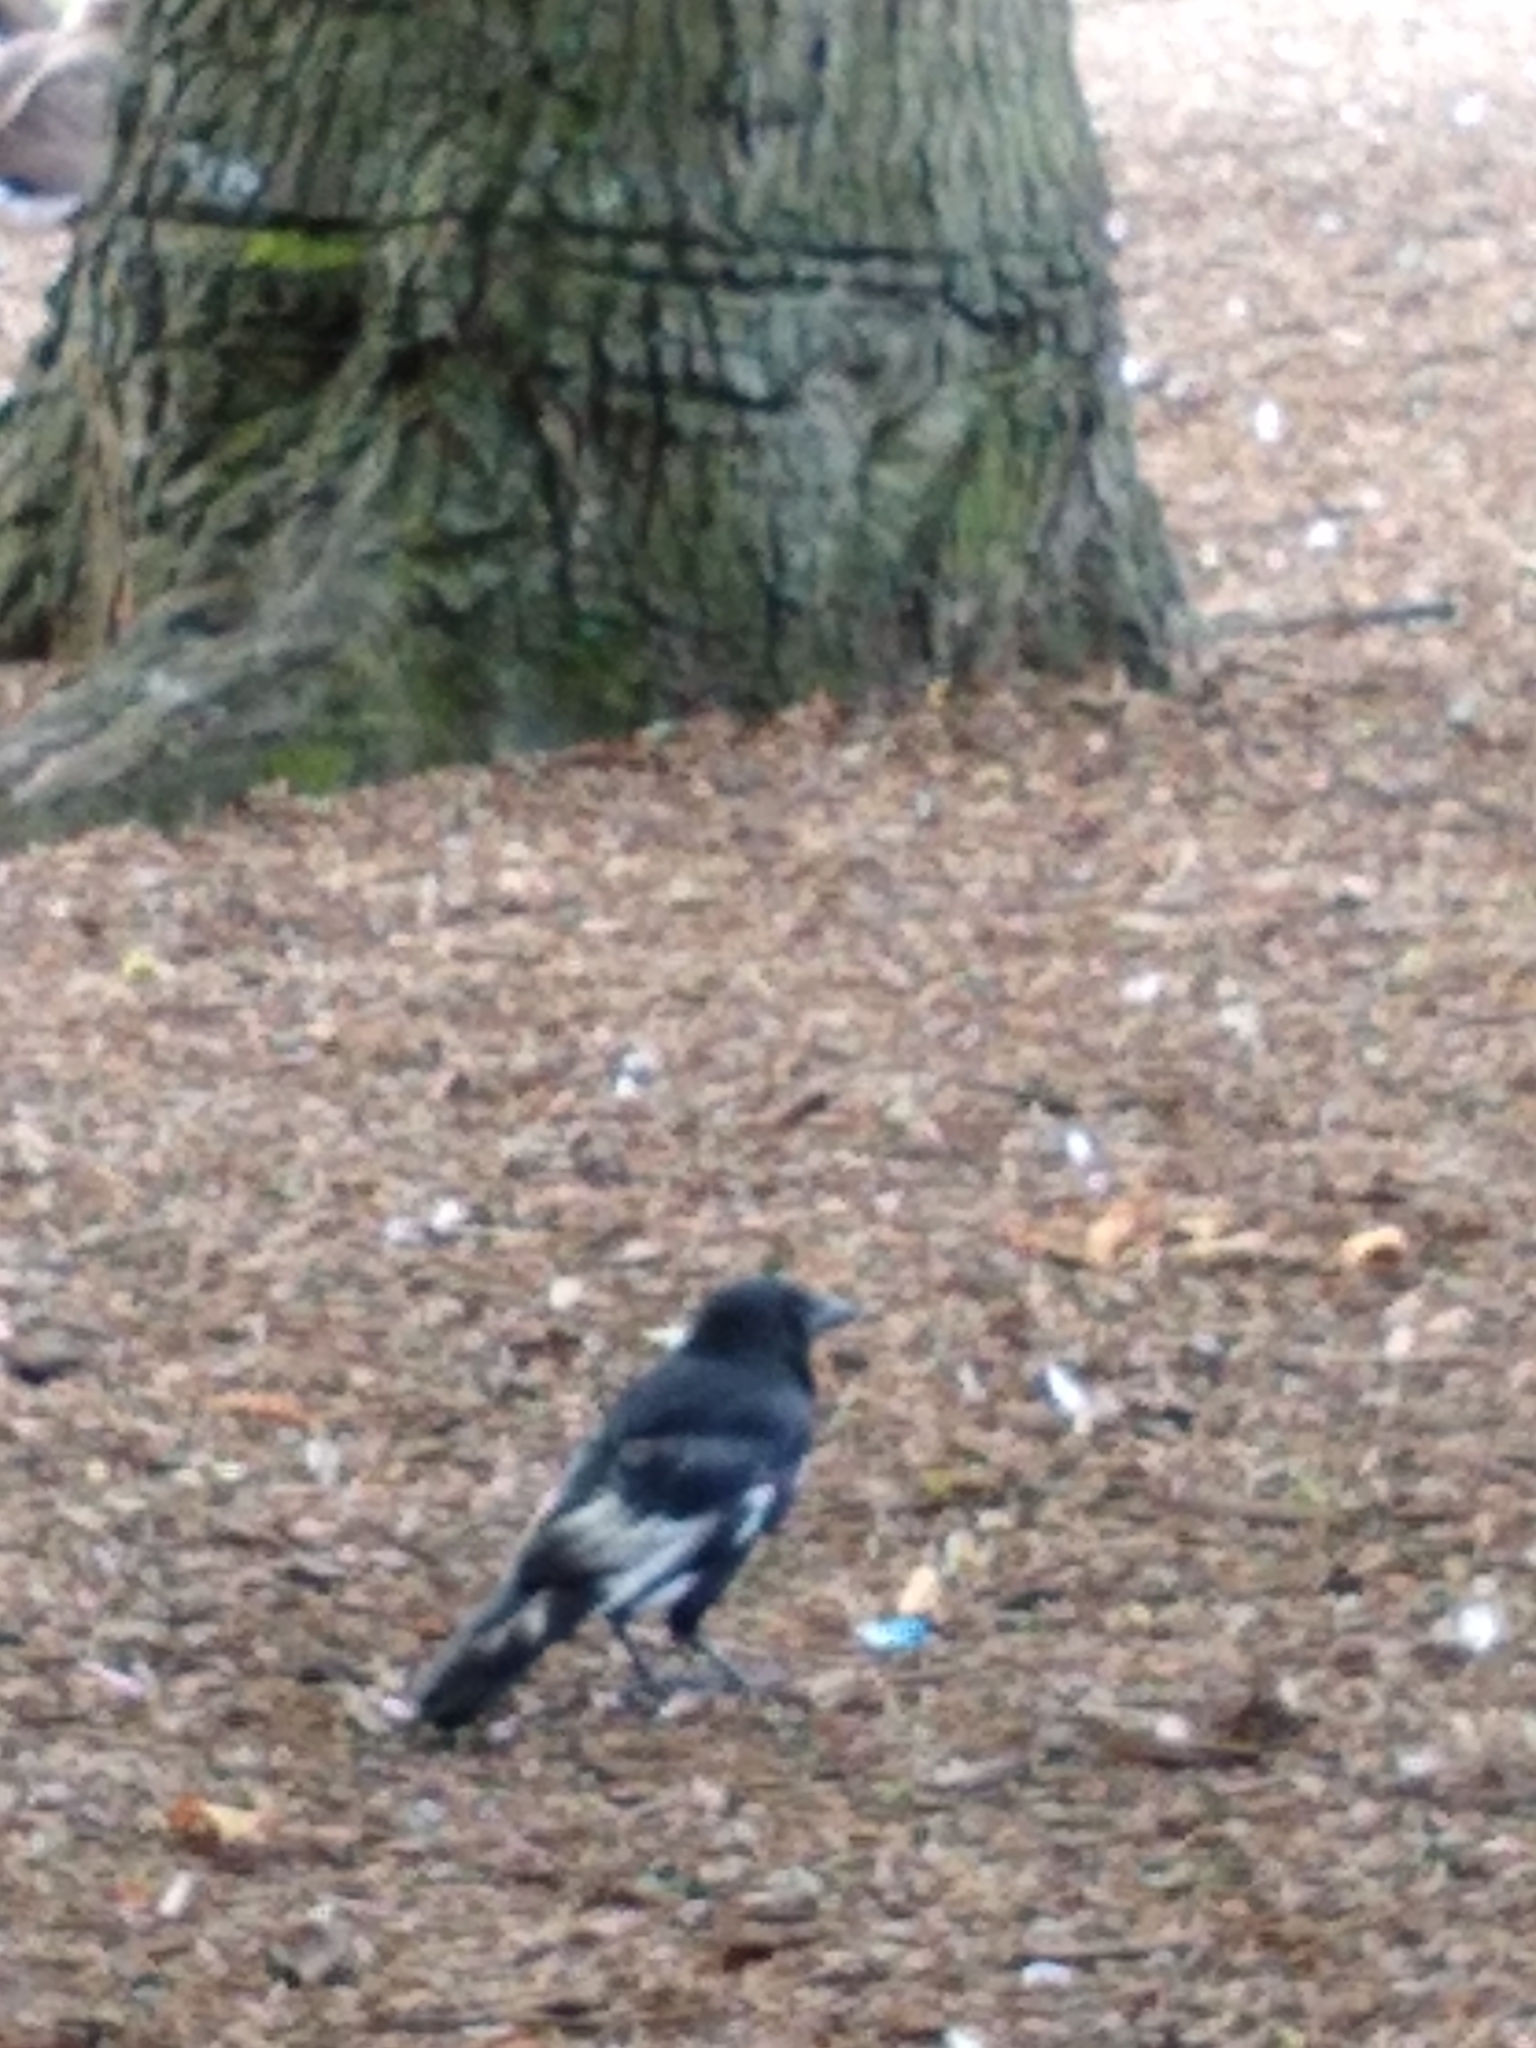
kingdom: Animalia
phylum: Chordata
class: Aves
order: Passeriformes
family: Corvidae
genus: Corvus
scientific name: Corvus corone
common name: Carrion crow
